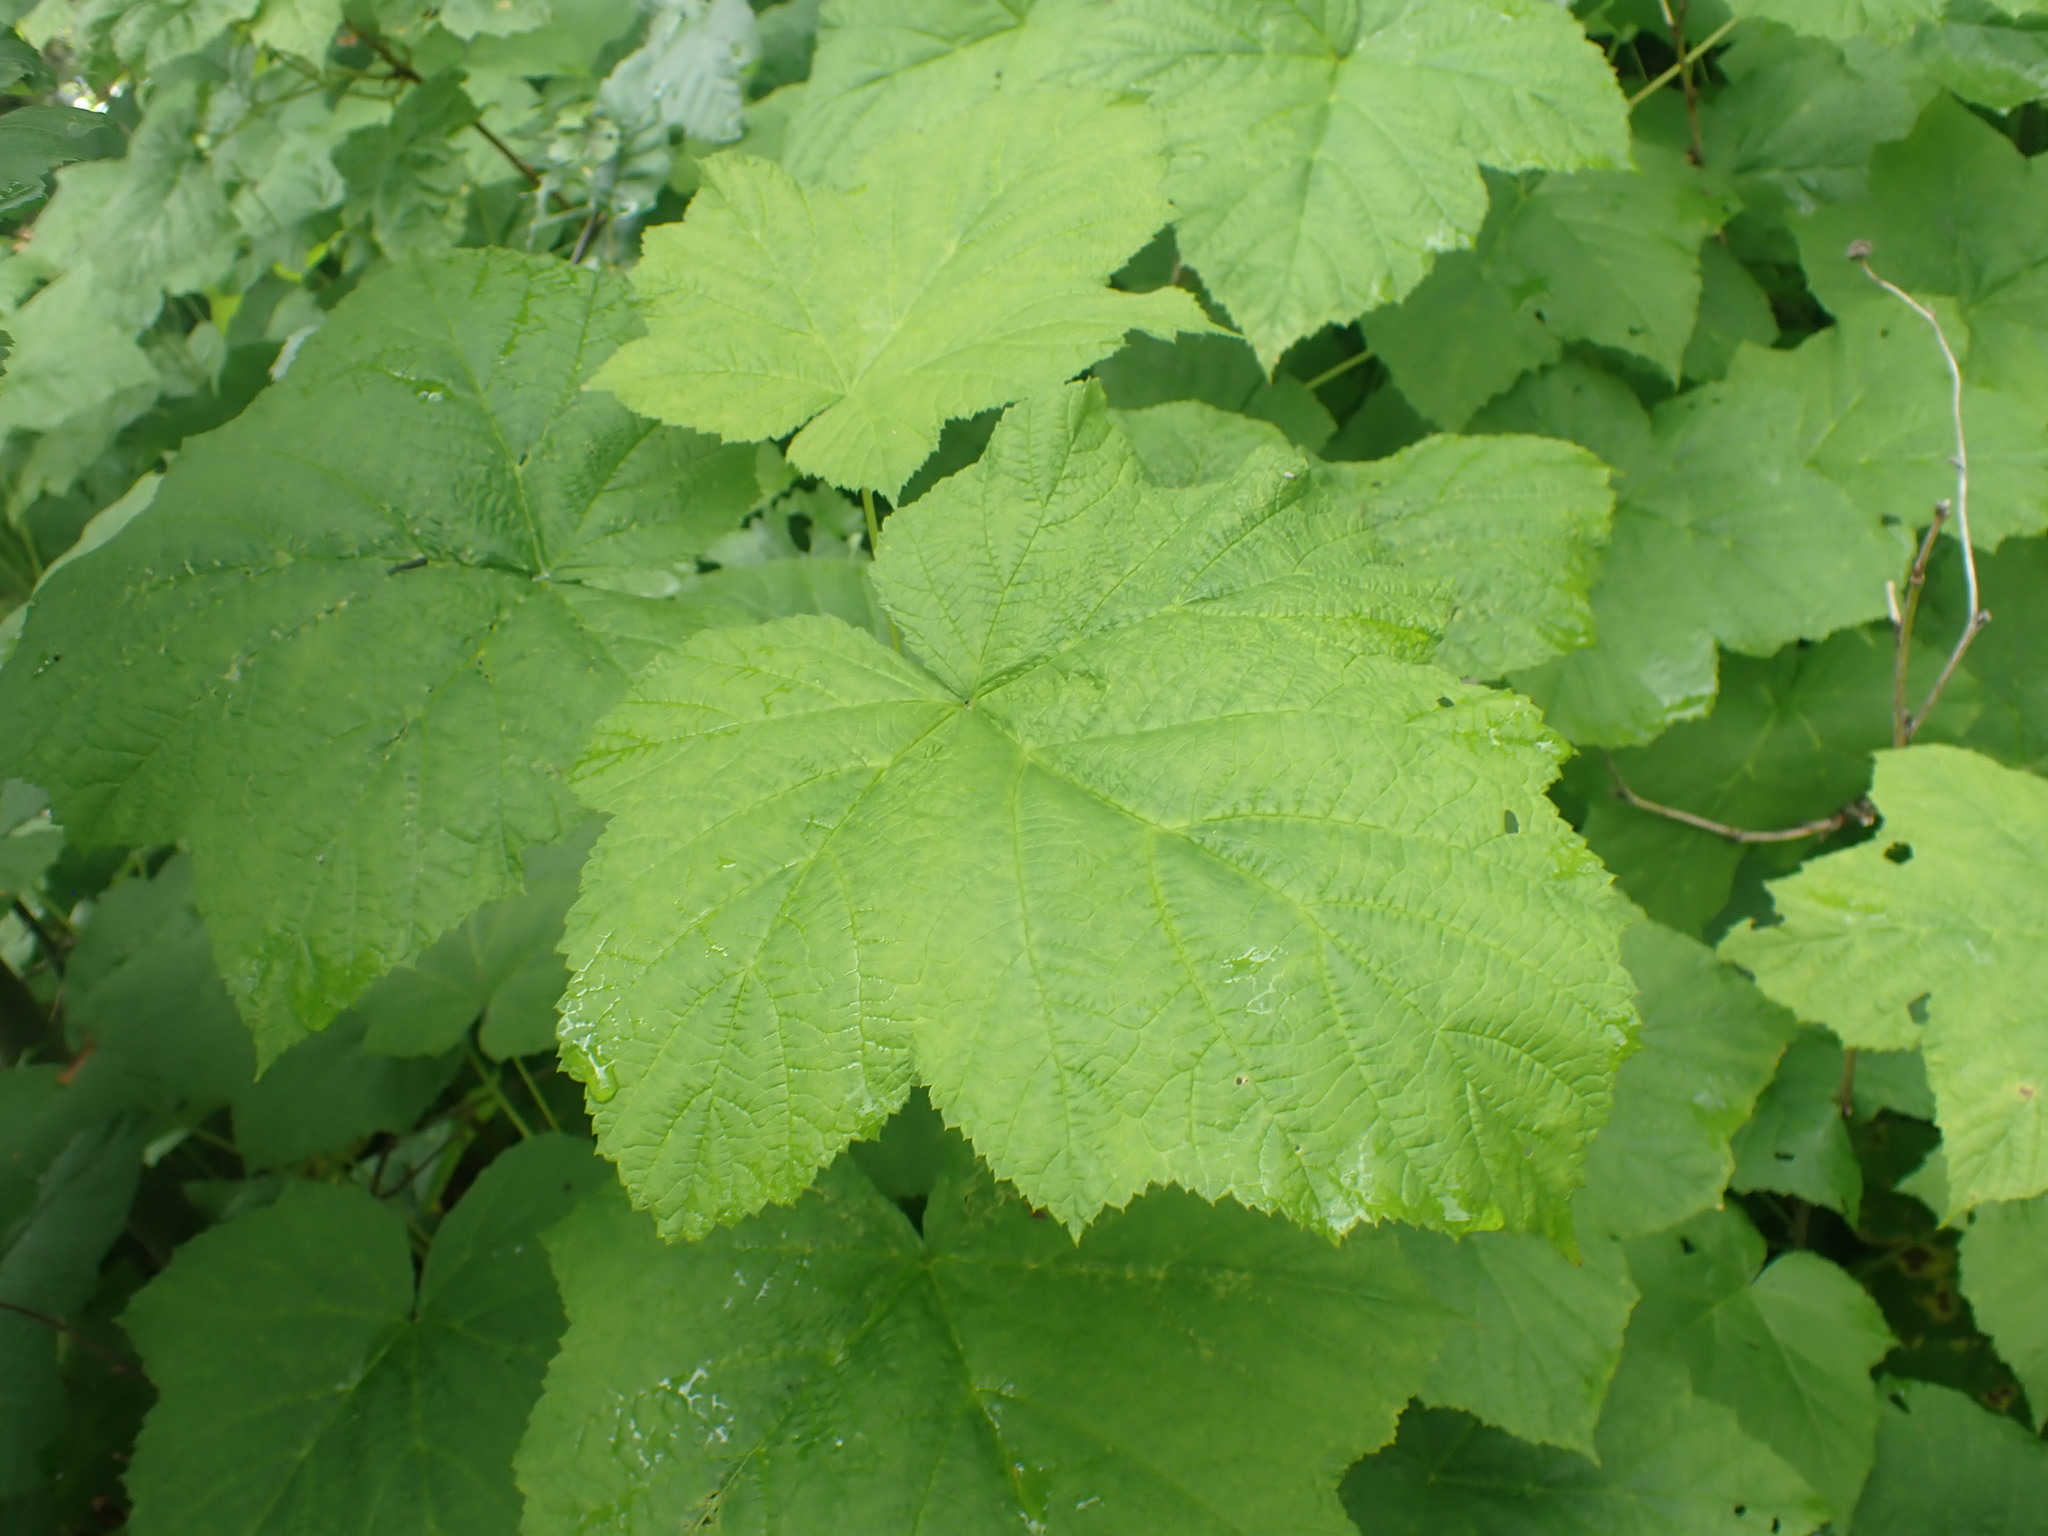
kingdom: Plantae
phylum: Tracheophyta
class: Magnoliopsida
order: Rosales
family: Rosaceae
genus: Rubus
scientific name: Rubus parviflorus
